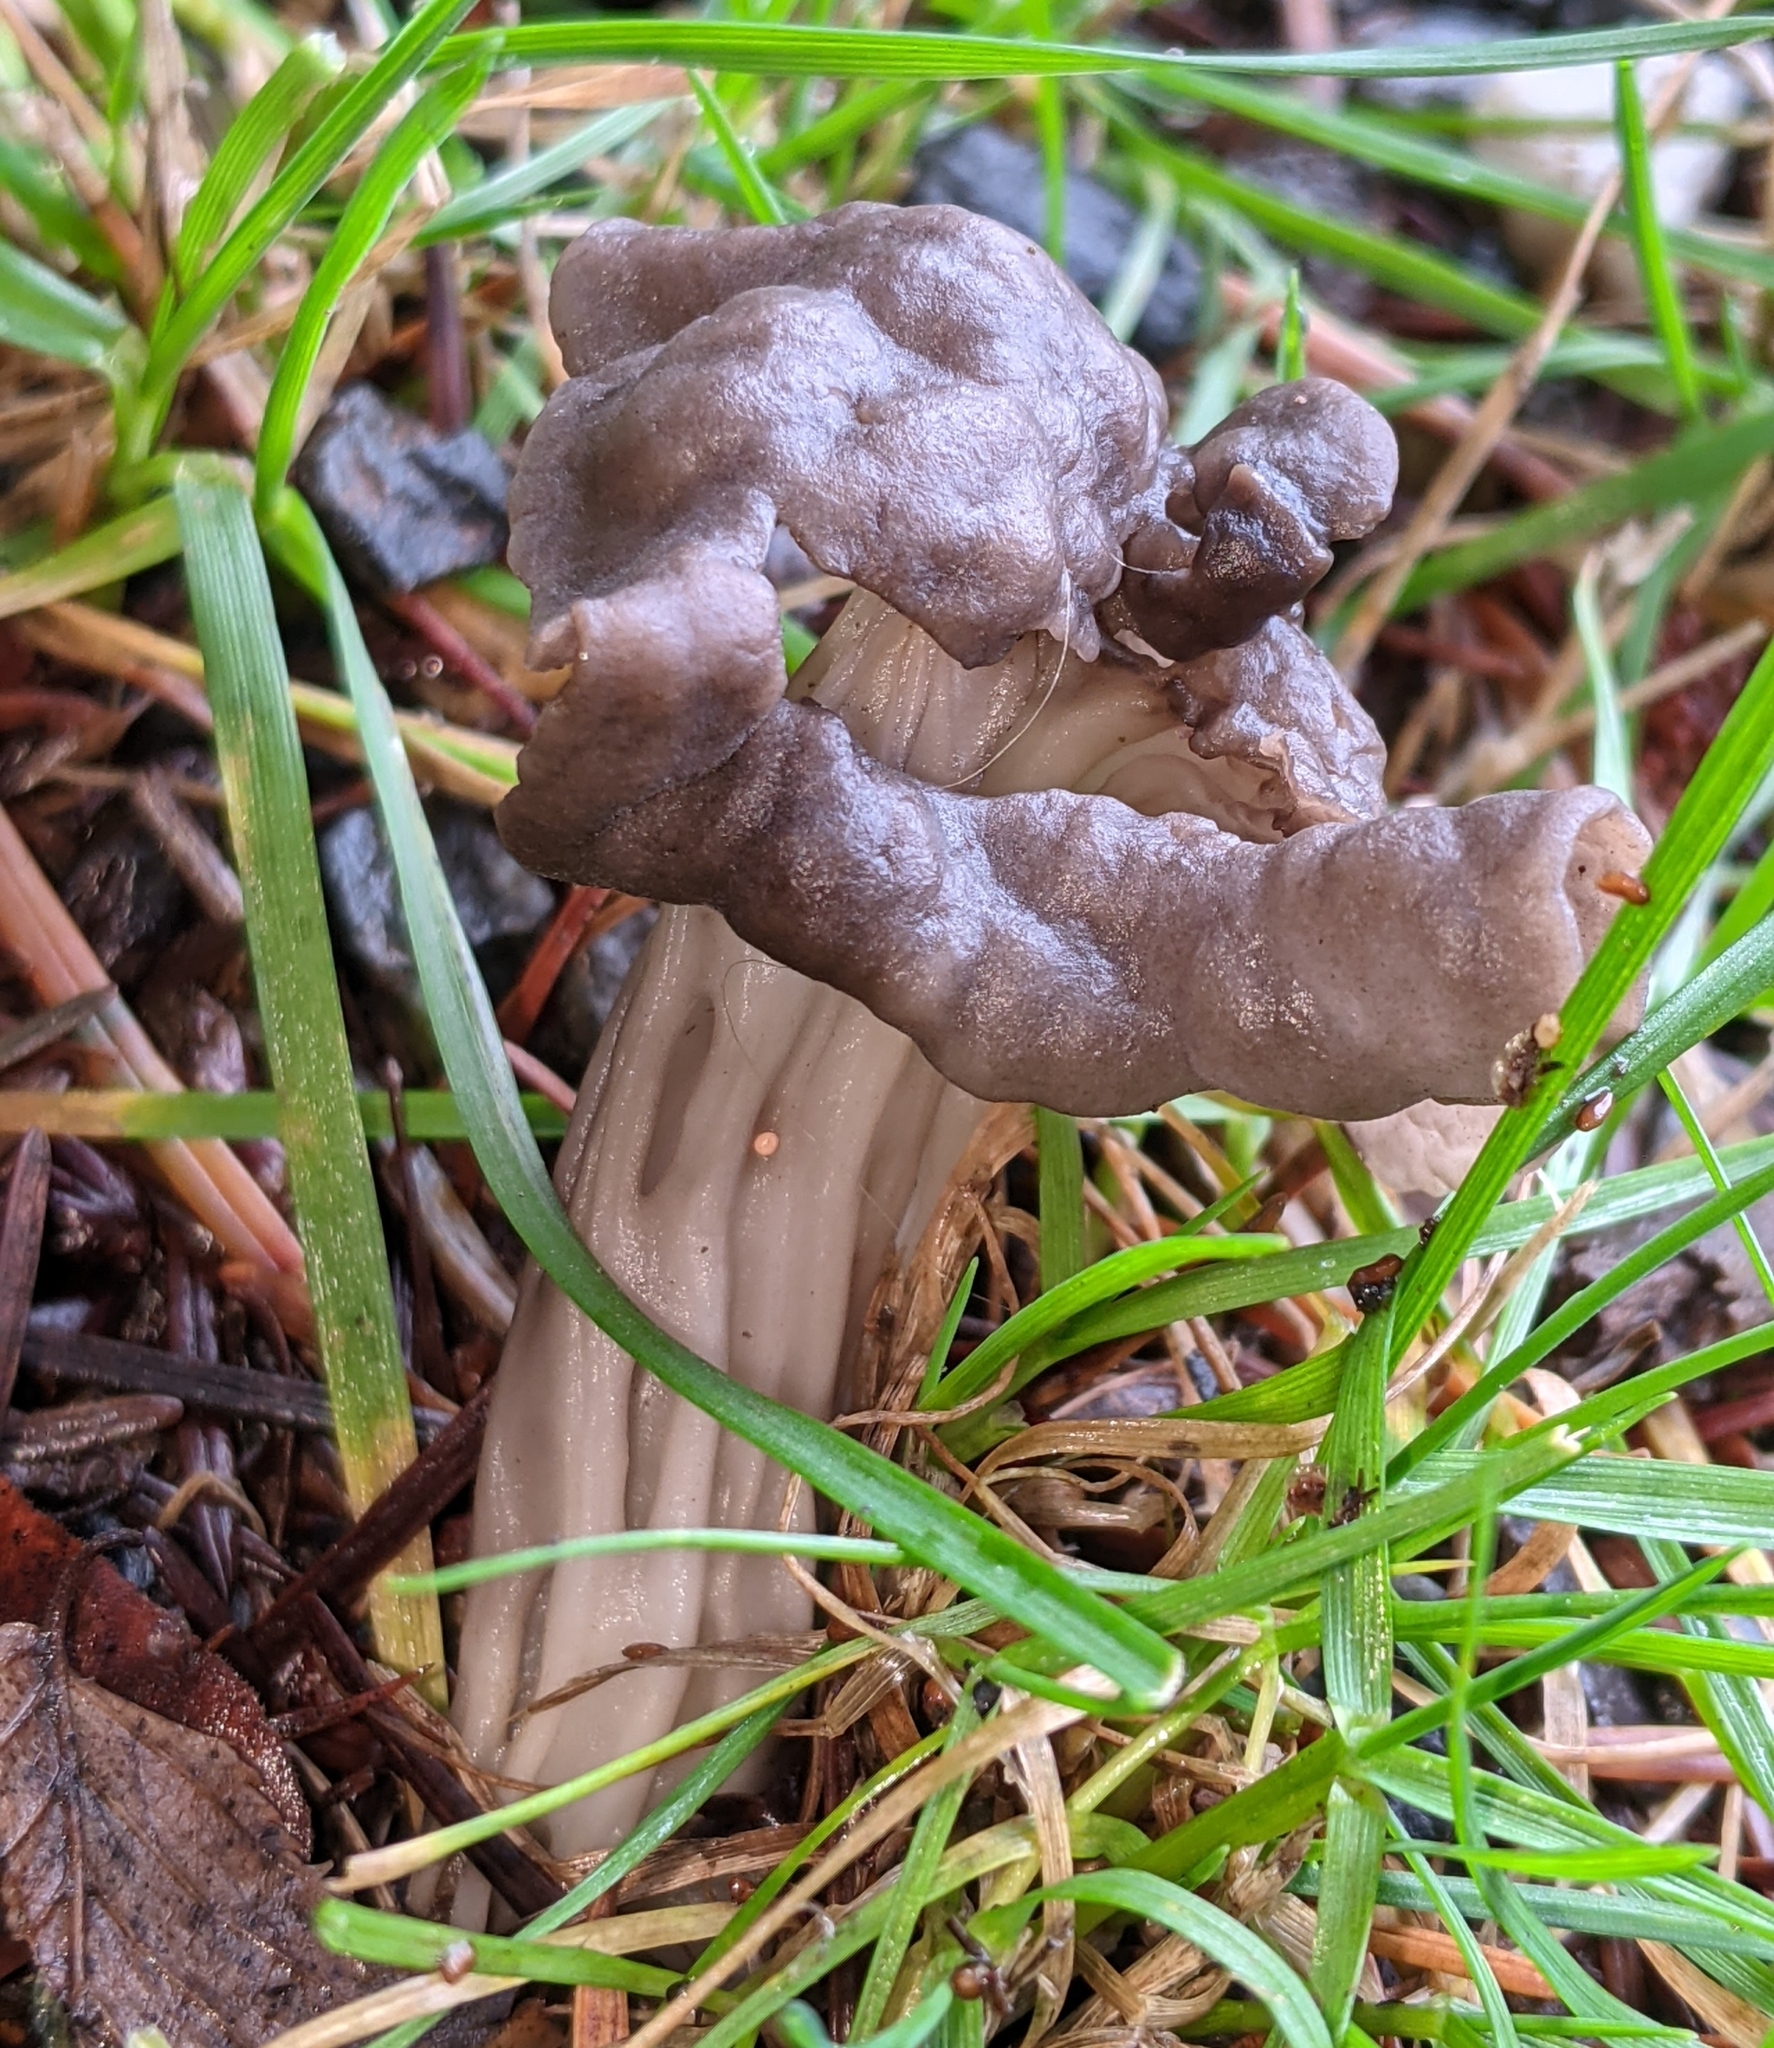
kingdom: Fungi
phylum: Ascomycota
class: Pezizomycetes
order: Pezizales
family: Helvellaceae
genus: Helvella
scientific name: Helvella vespertina
